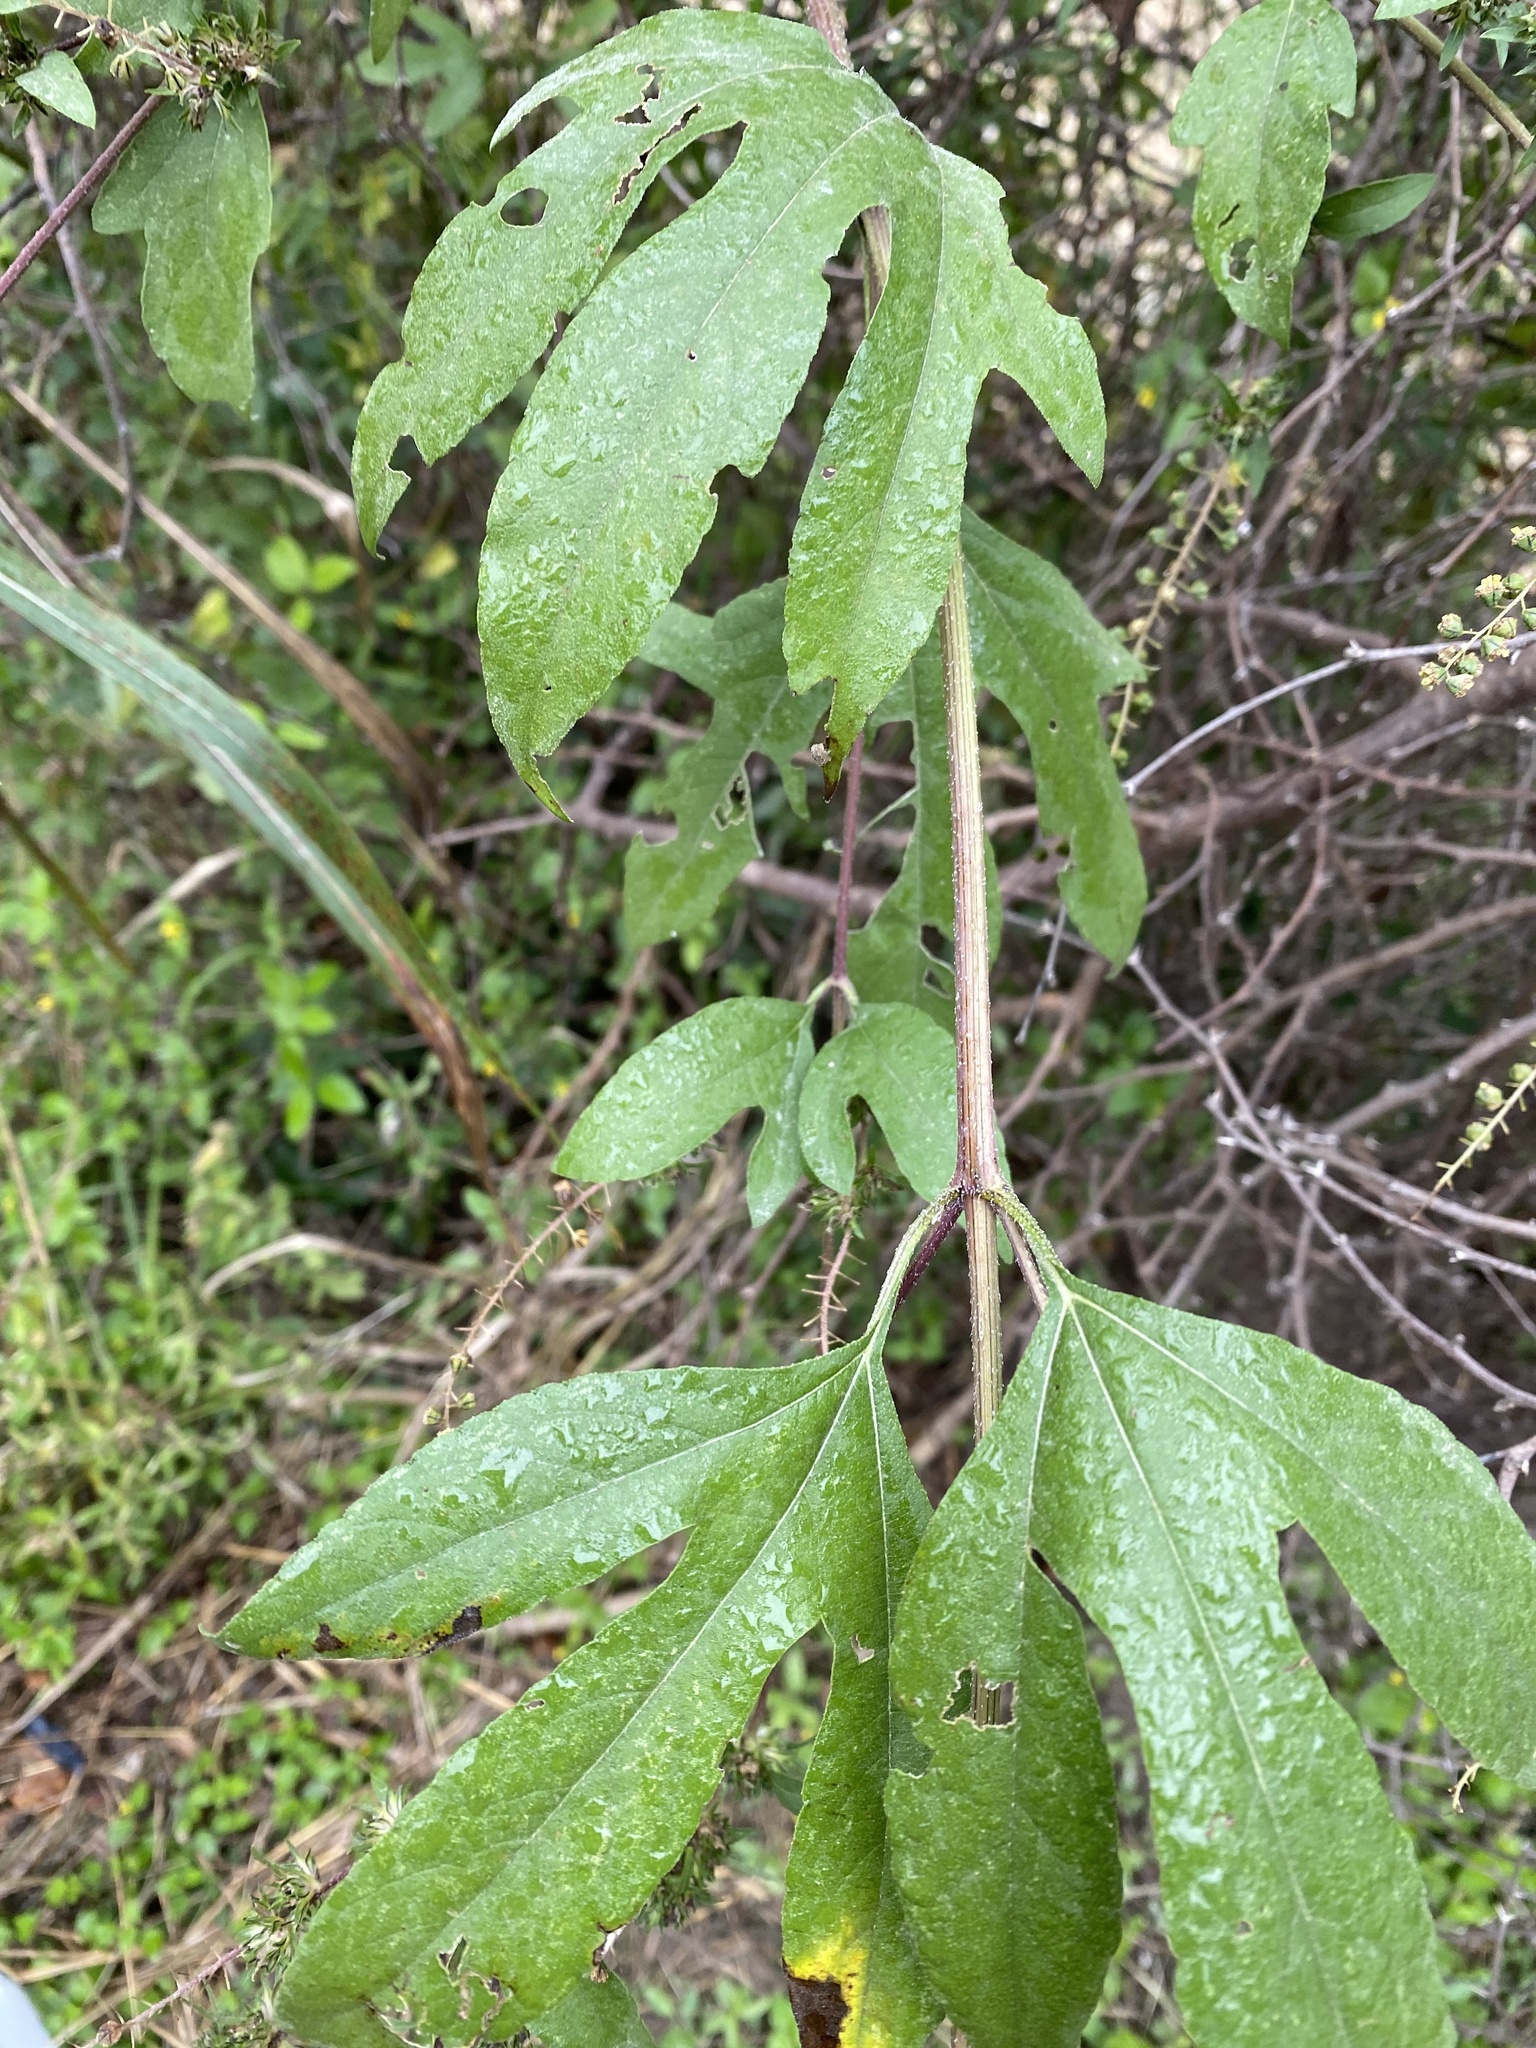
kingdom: Plantae
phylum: Tracheophyta
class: Magnoliopsida
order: Asterales
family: Asteraceae
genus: Ambrosia
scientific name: Ambrosia trifida
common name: Giant ragweed
